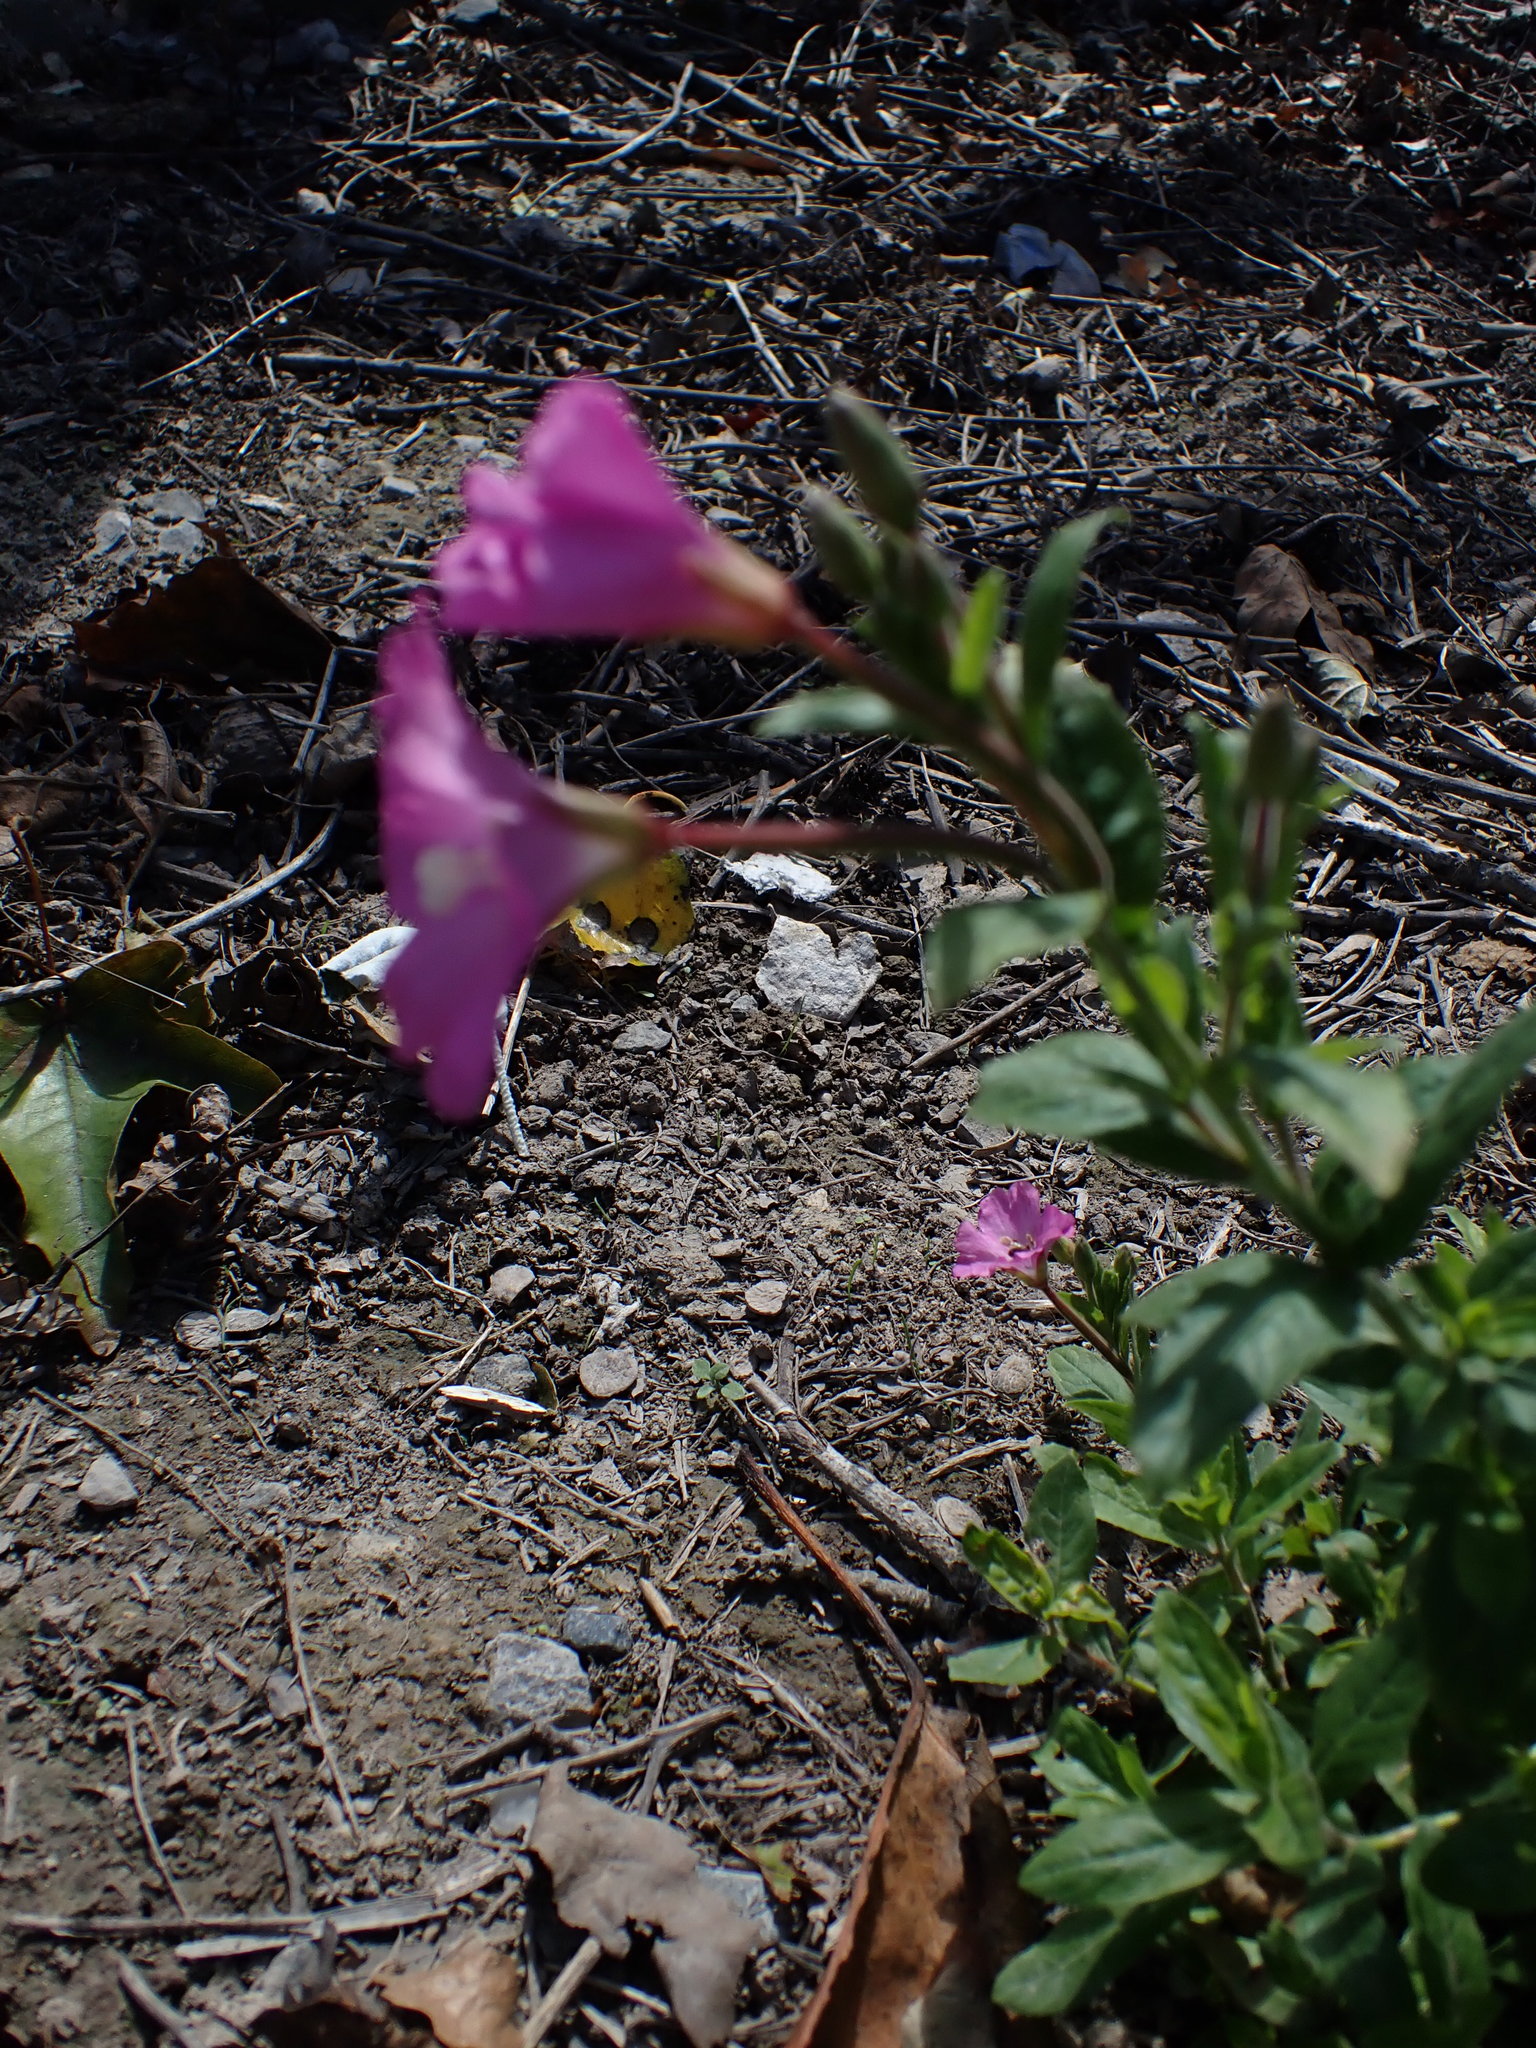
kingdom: Plantae
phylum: Tracheophyta
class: Magnoliopsida
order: Myrtales
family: Onagraceae
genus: Epilobium
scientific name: Epilobium hirsutum
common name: Great willowherb
